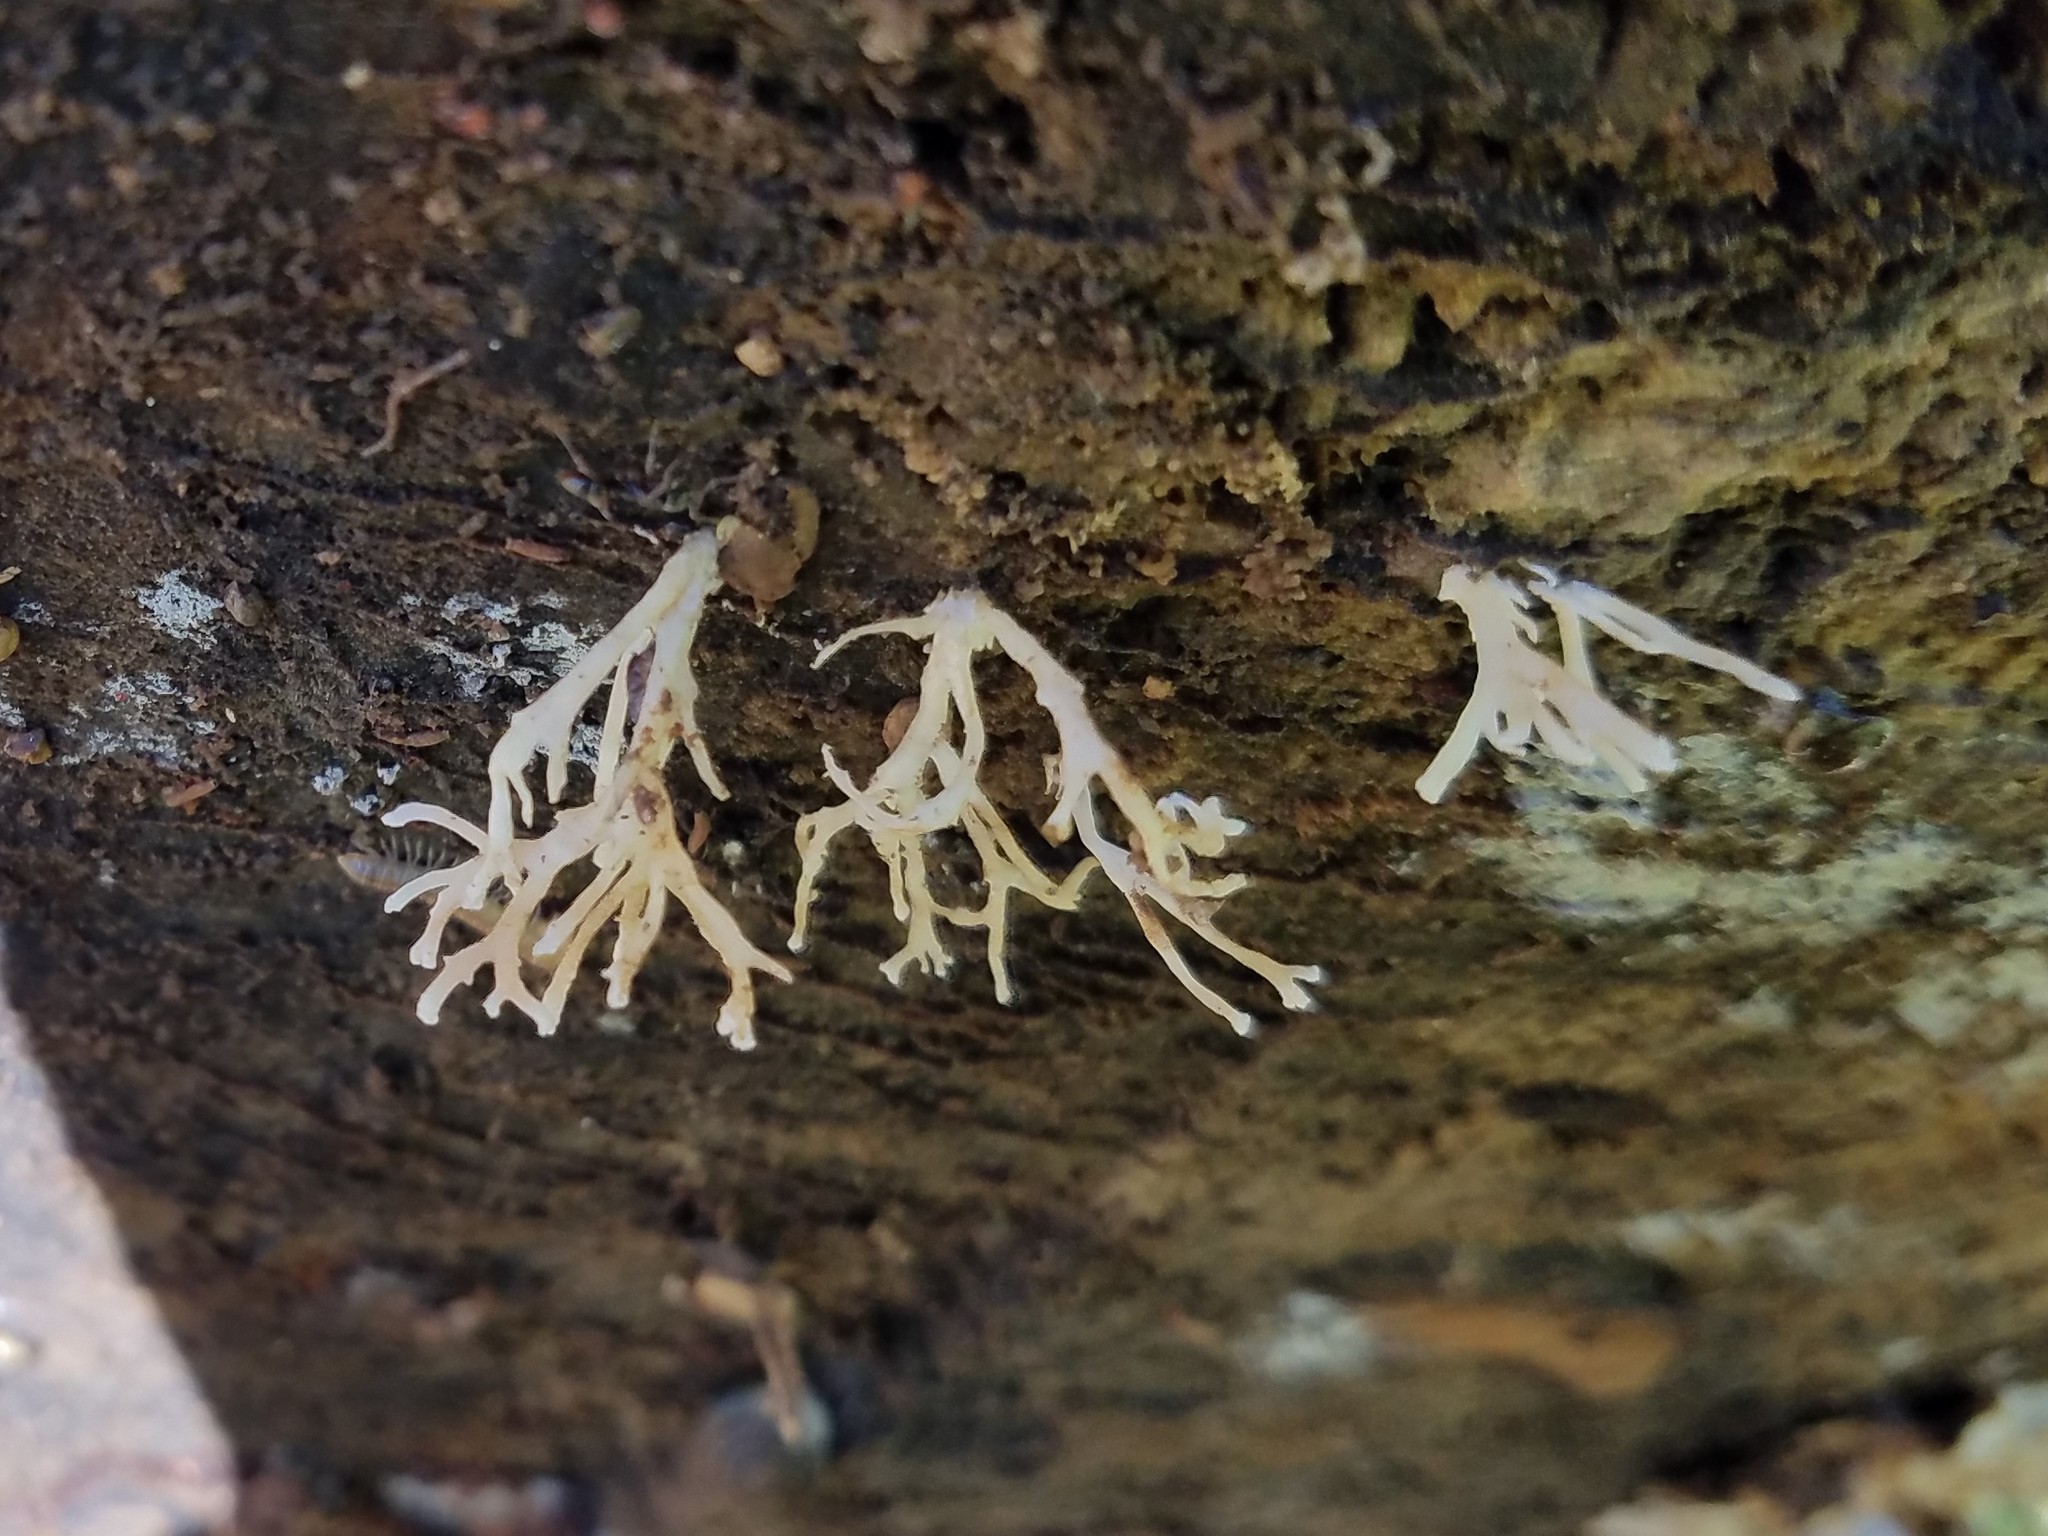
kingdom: Fungi
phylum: Basidiomycota
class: Dacrymycetes
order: Dacrymycetales
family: Dacrymycetaceae
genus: Calocera
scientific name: Calocera cornea
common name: Small stagshorn
